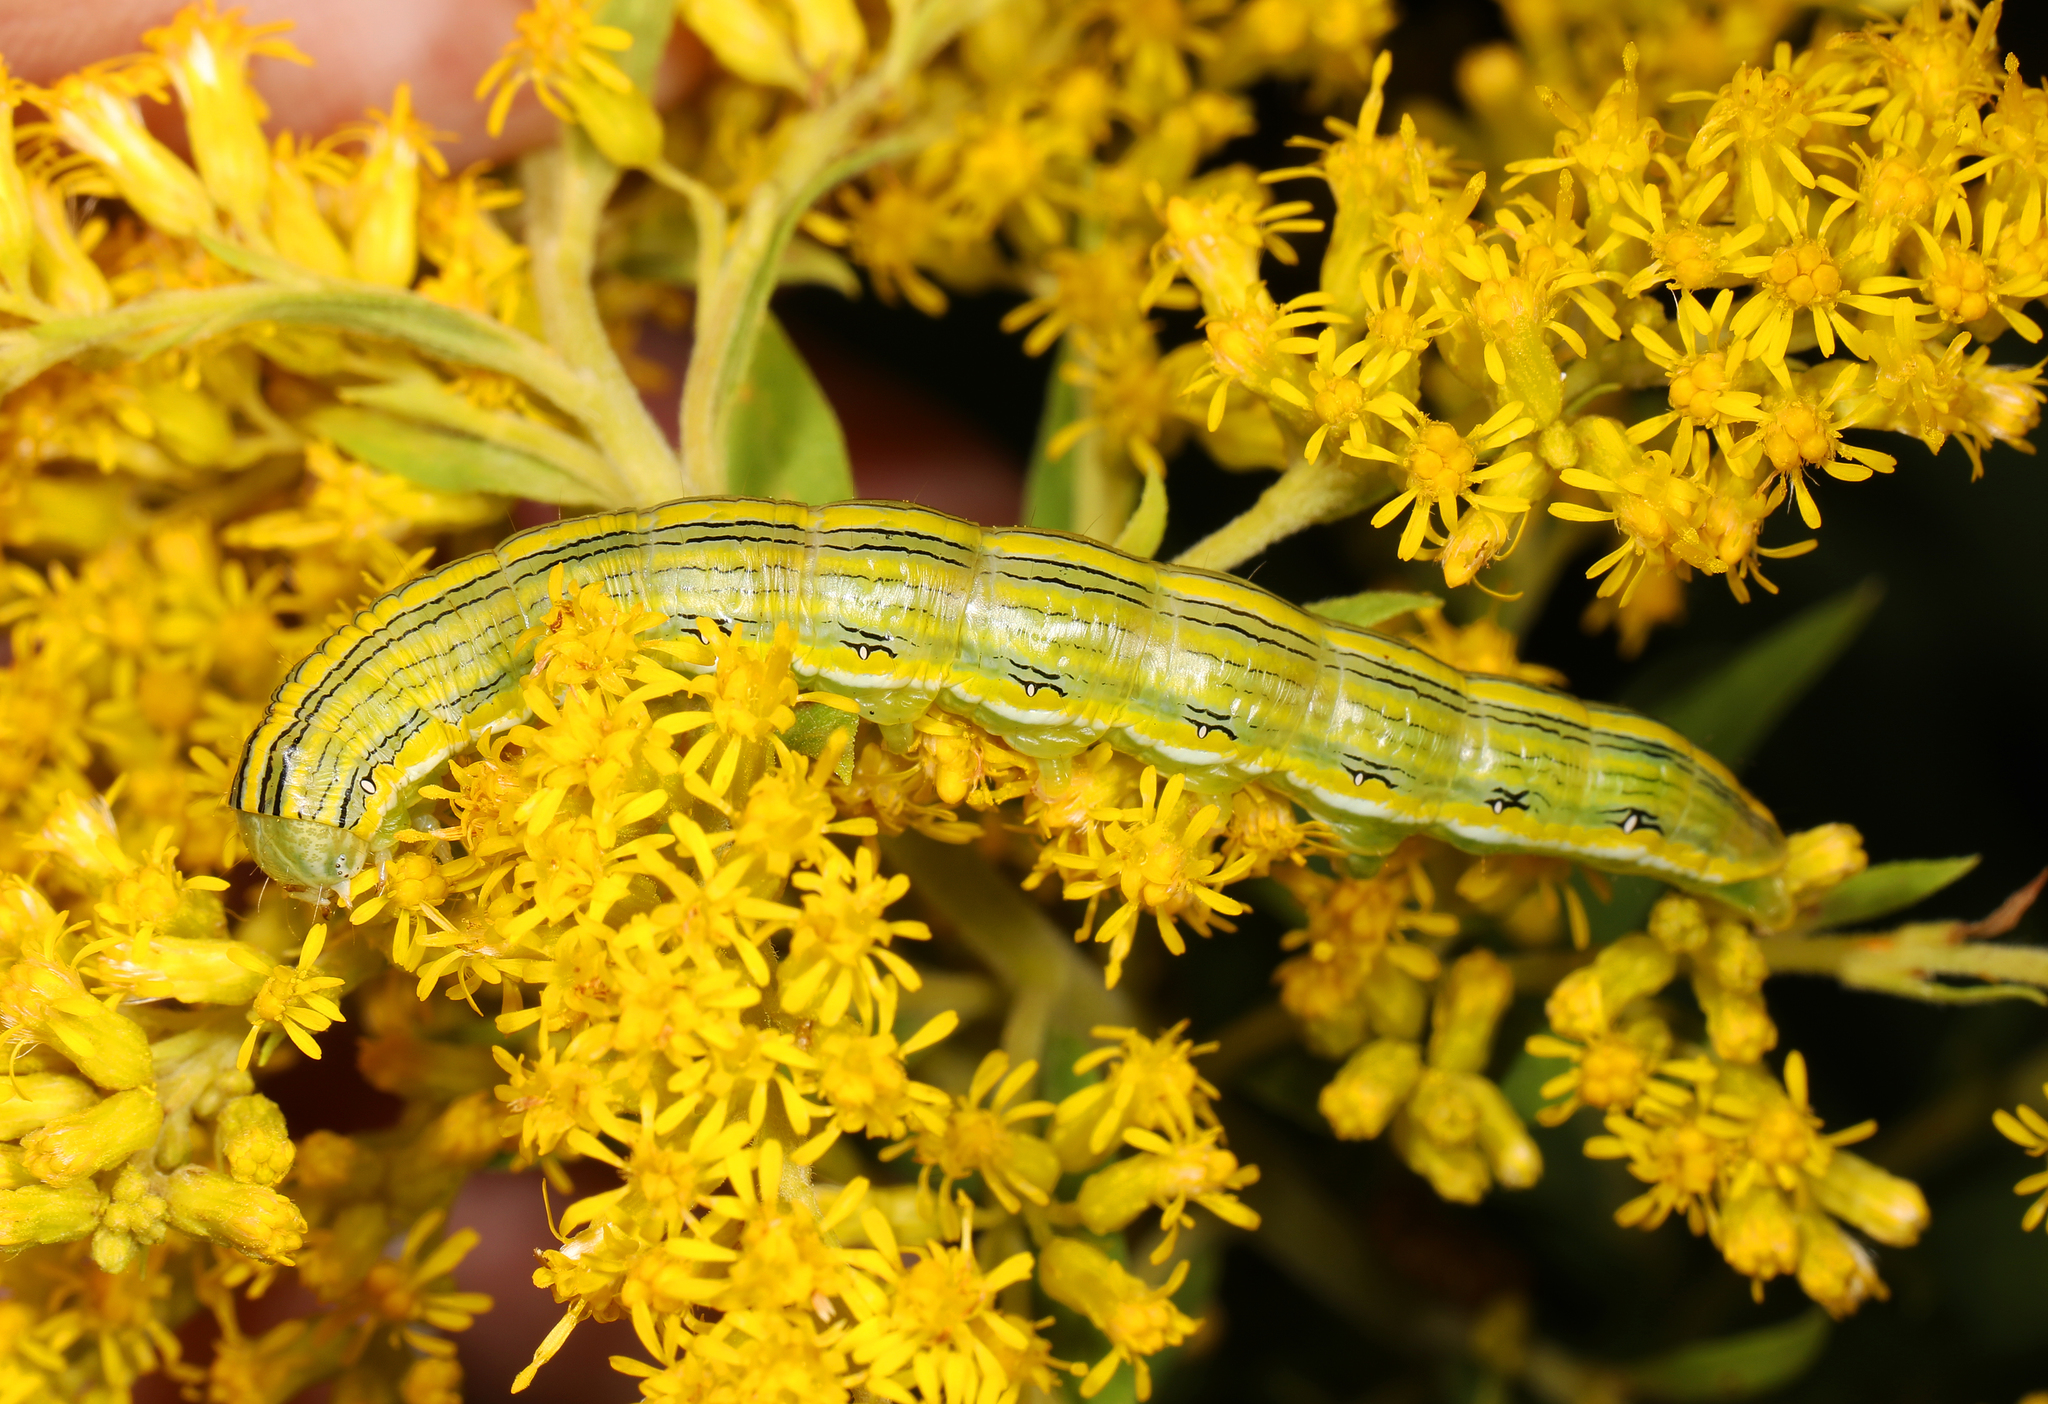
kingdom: Animalia
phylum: Arthropoda
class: Insecta
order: Lepidoptera
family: Noctuidae
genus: Cucullia
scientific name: Cucullia asteroides
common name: Asteroid moth
